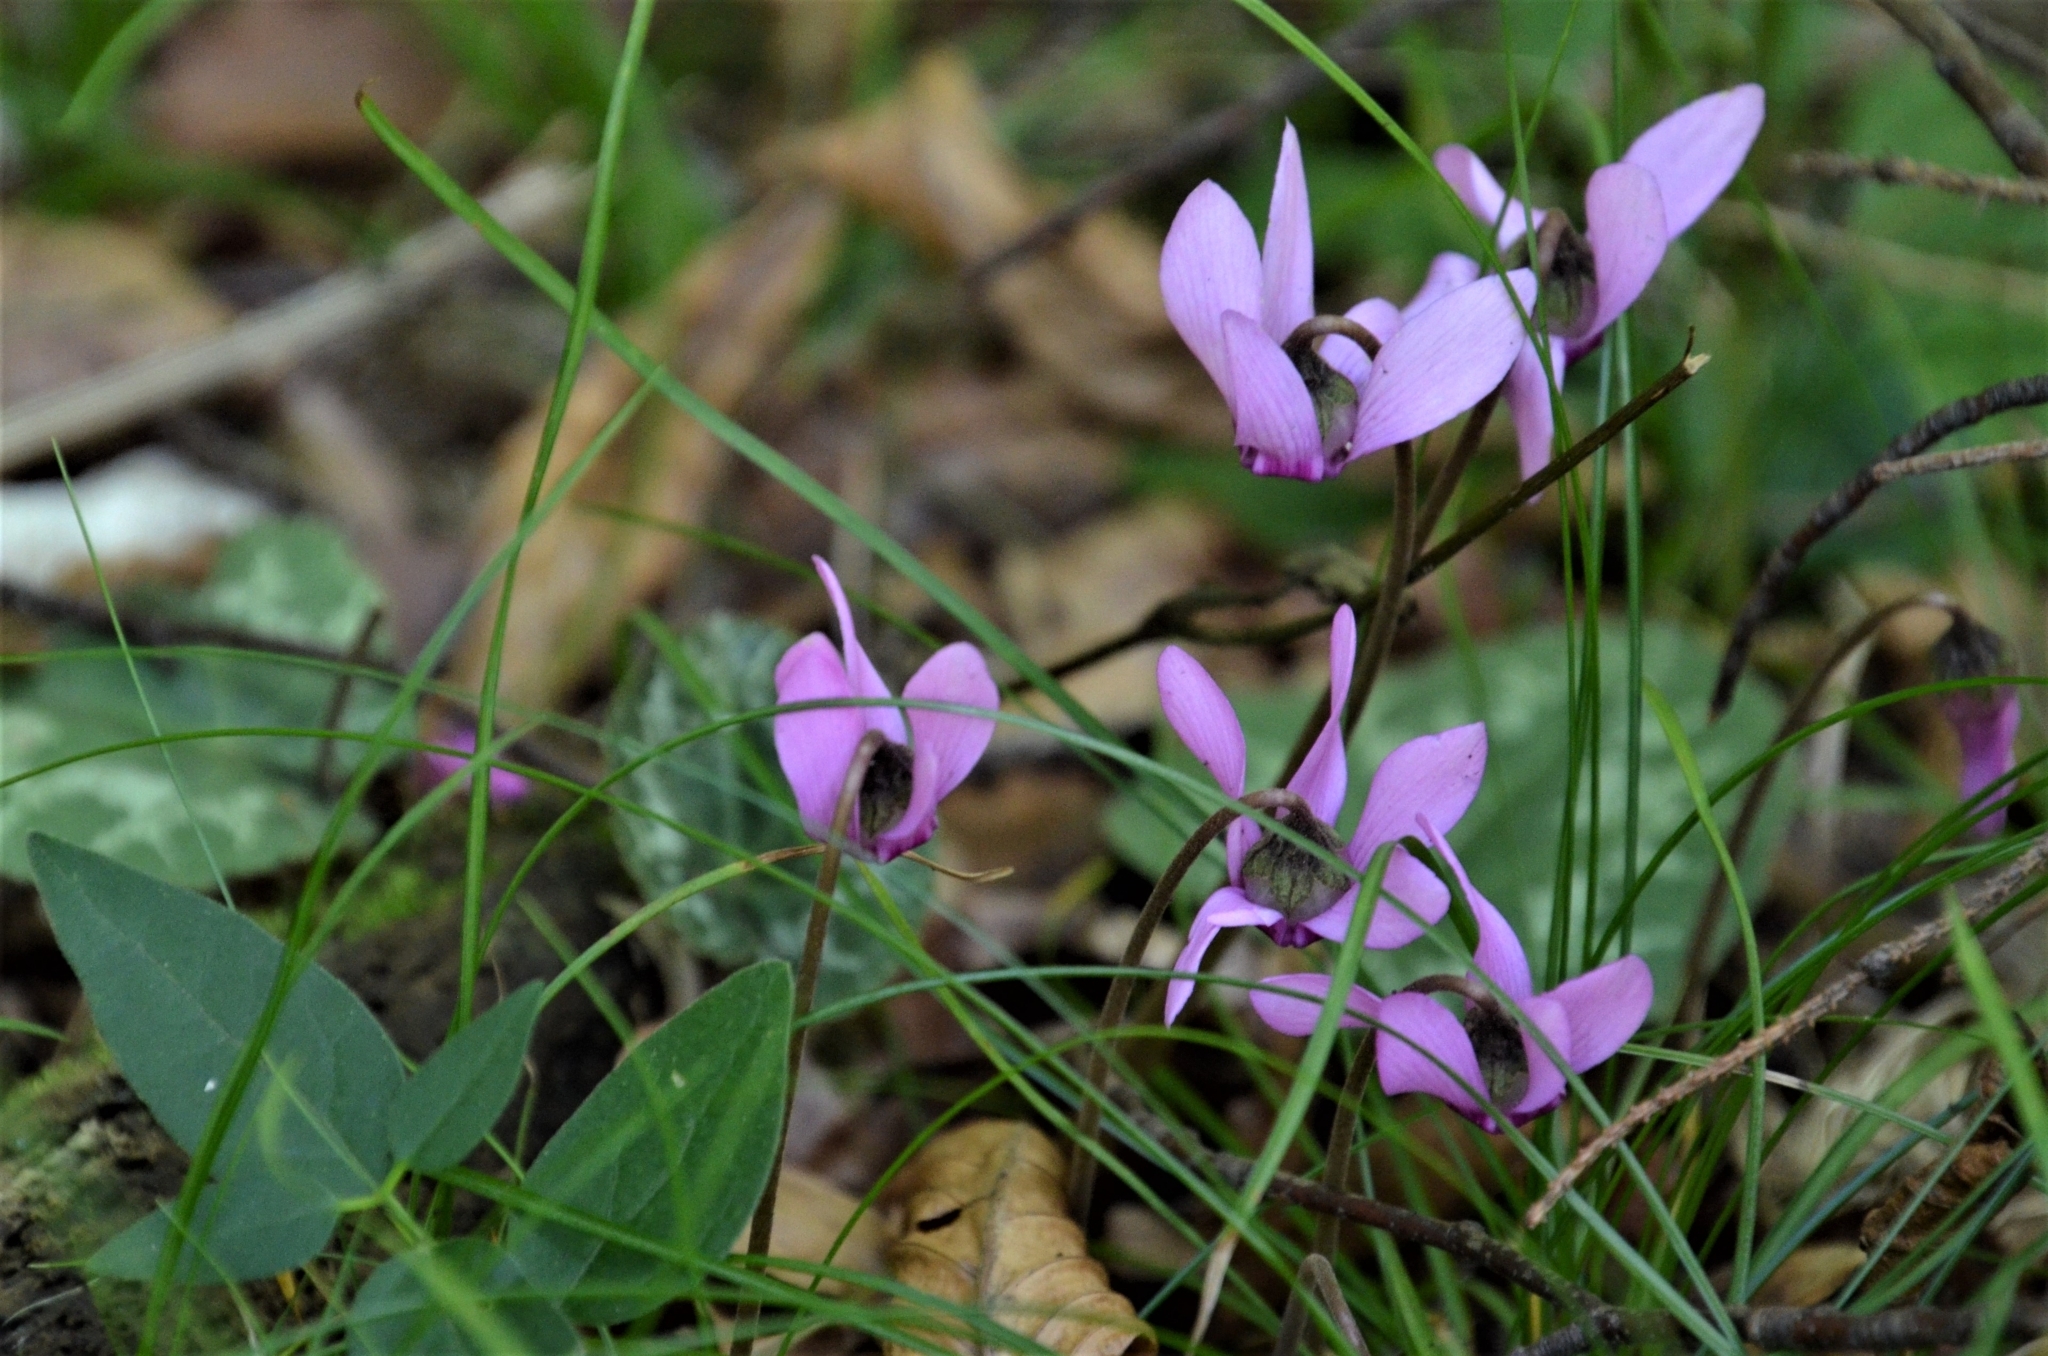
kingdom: Plantae
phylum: Tracheophyta
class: Magnoliopsida
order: Ericales
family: Primulaceae
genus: Cyclamen
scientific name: Cyclamen purpurascens
